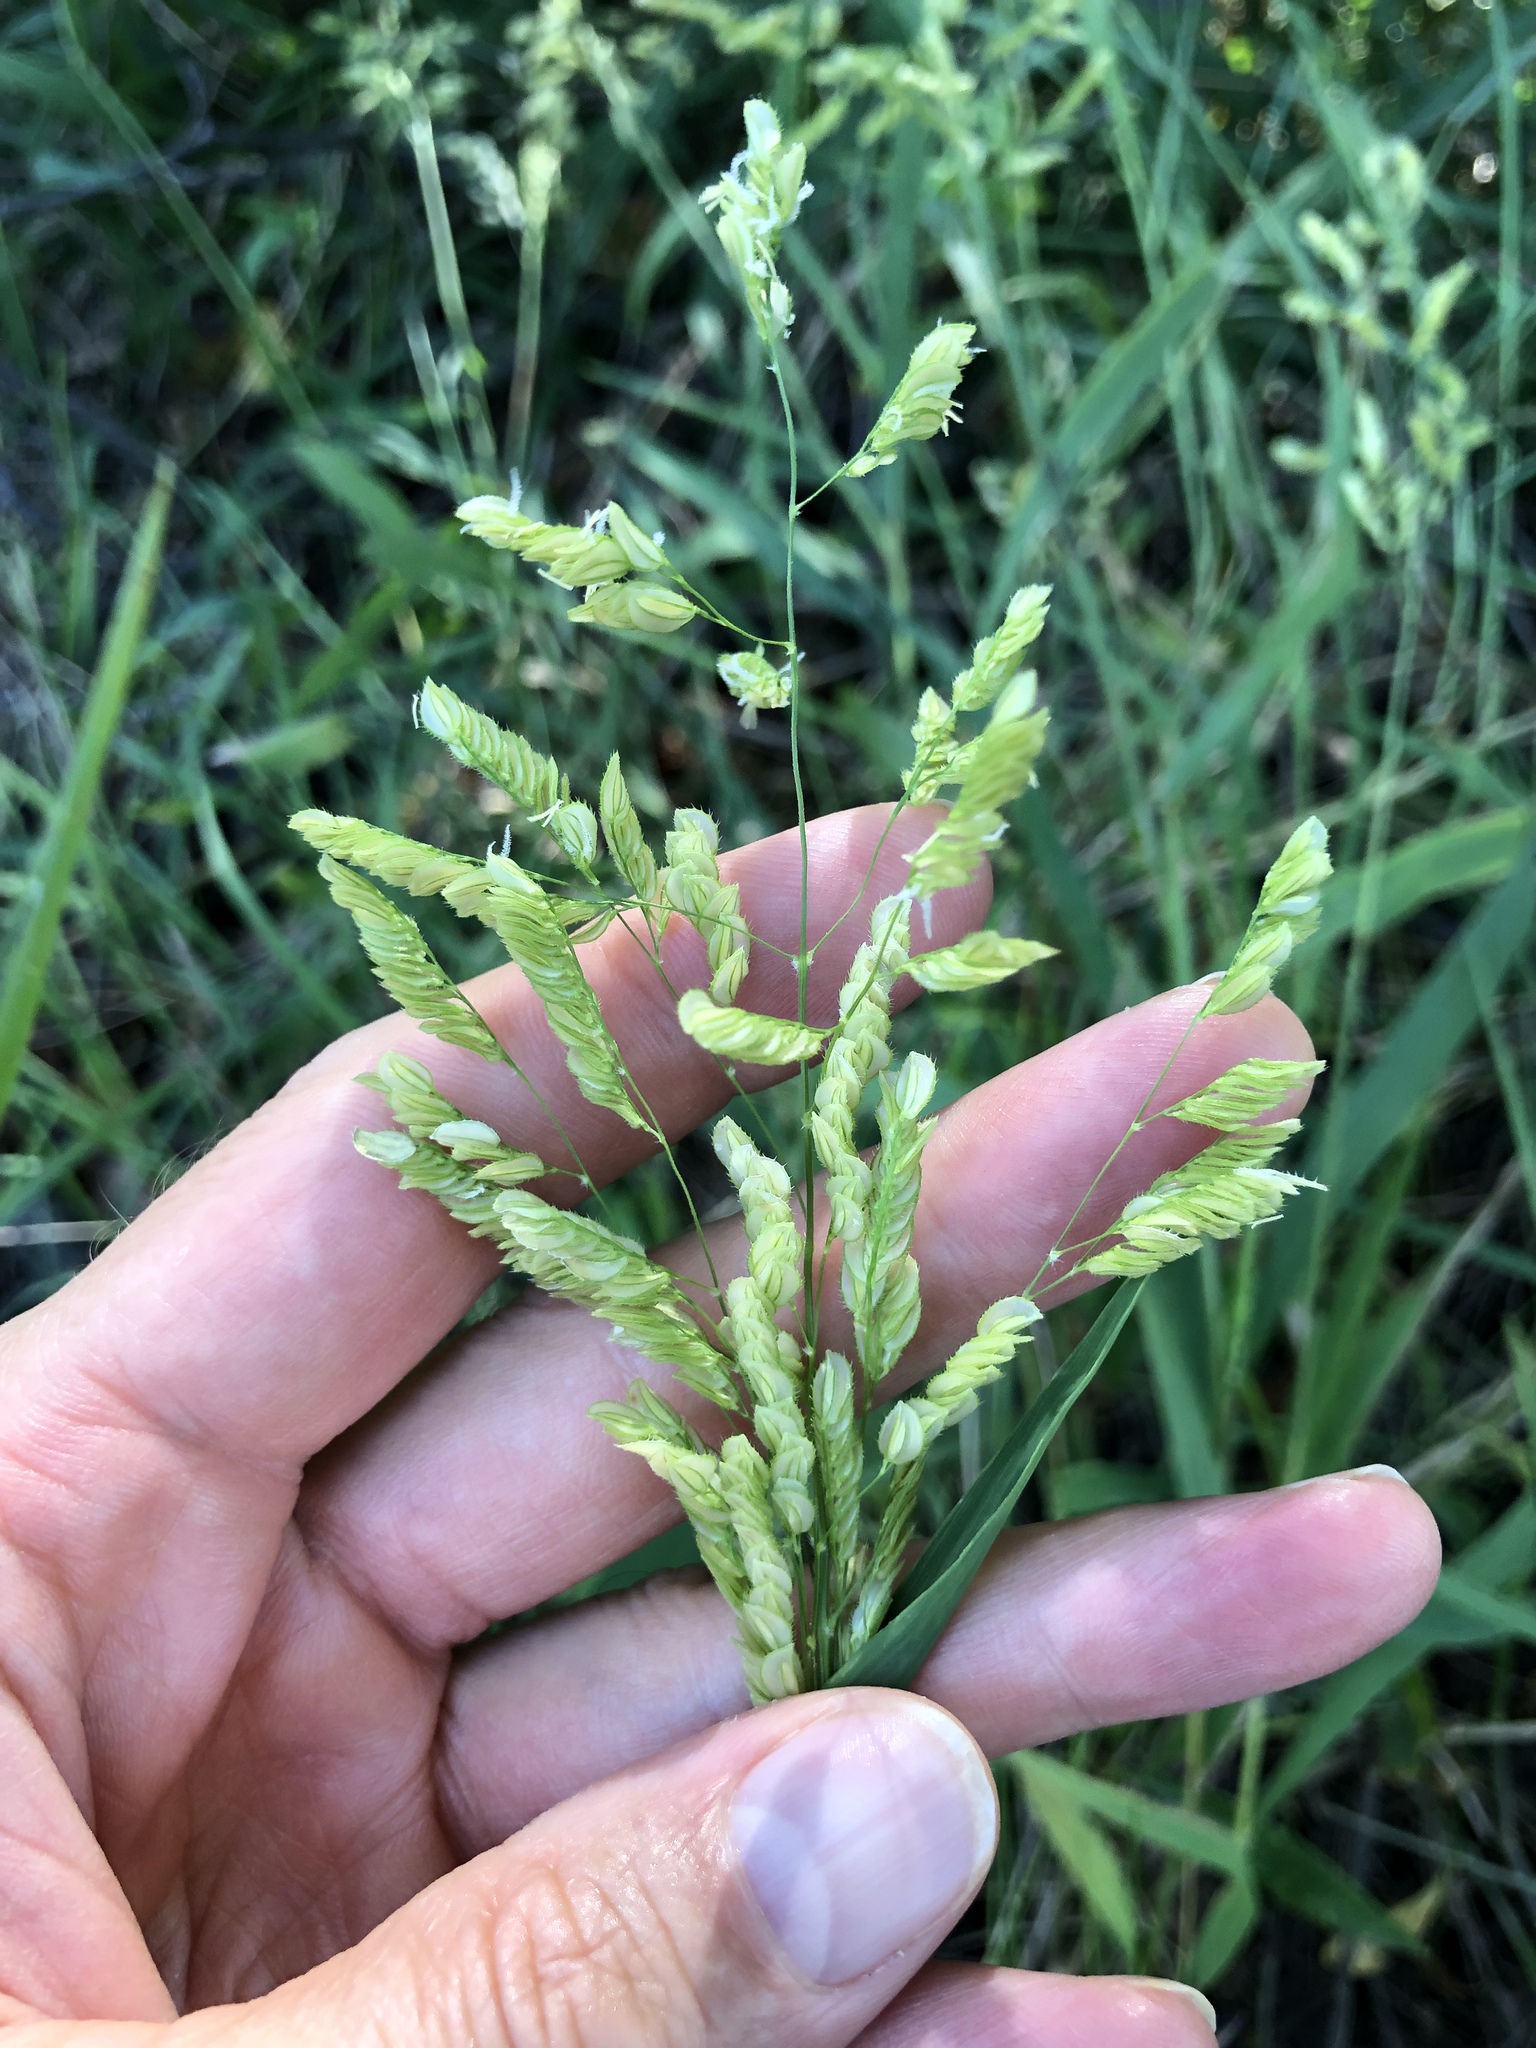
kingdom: Plantae
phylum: Tracheophyta
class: Liliopsida
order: Poales
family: Poaceae
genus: Leersia
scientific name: Leersia lenticularis
